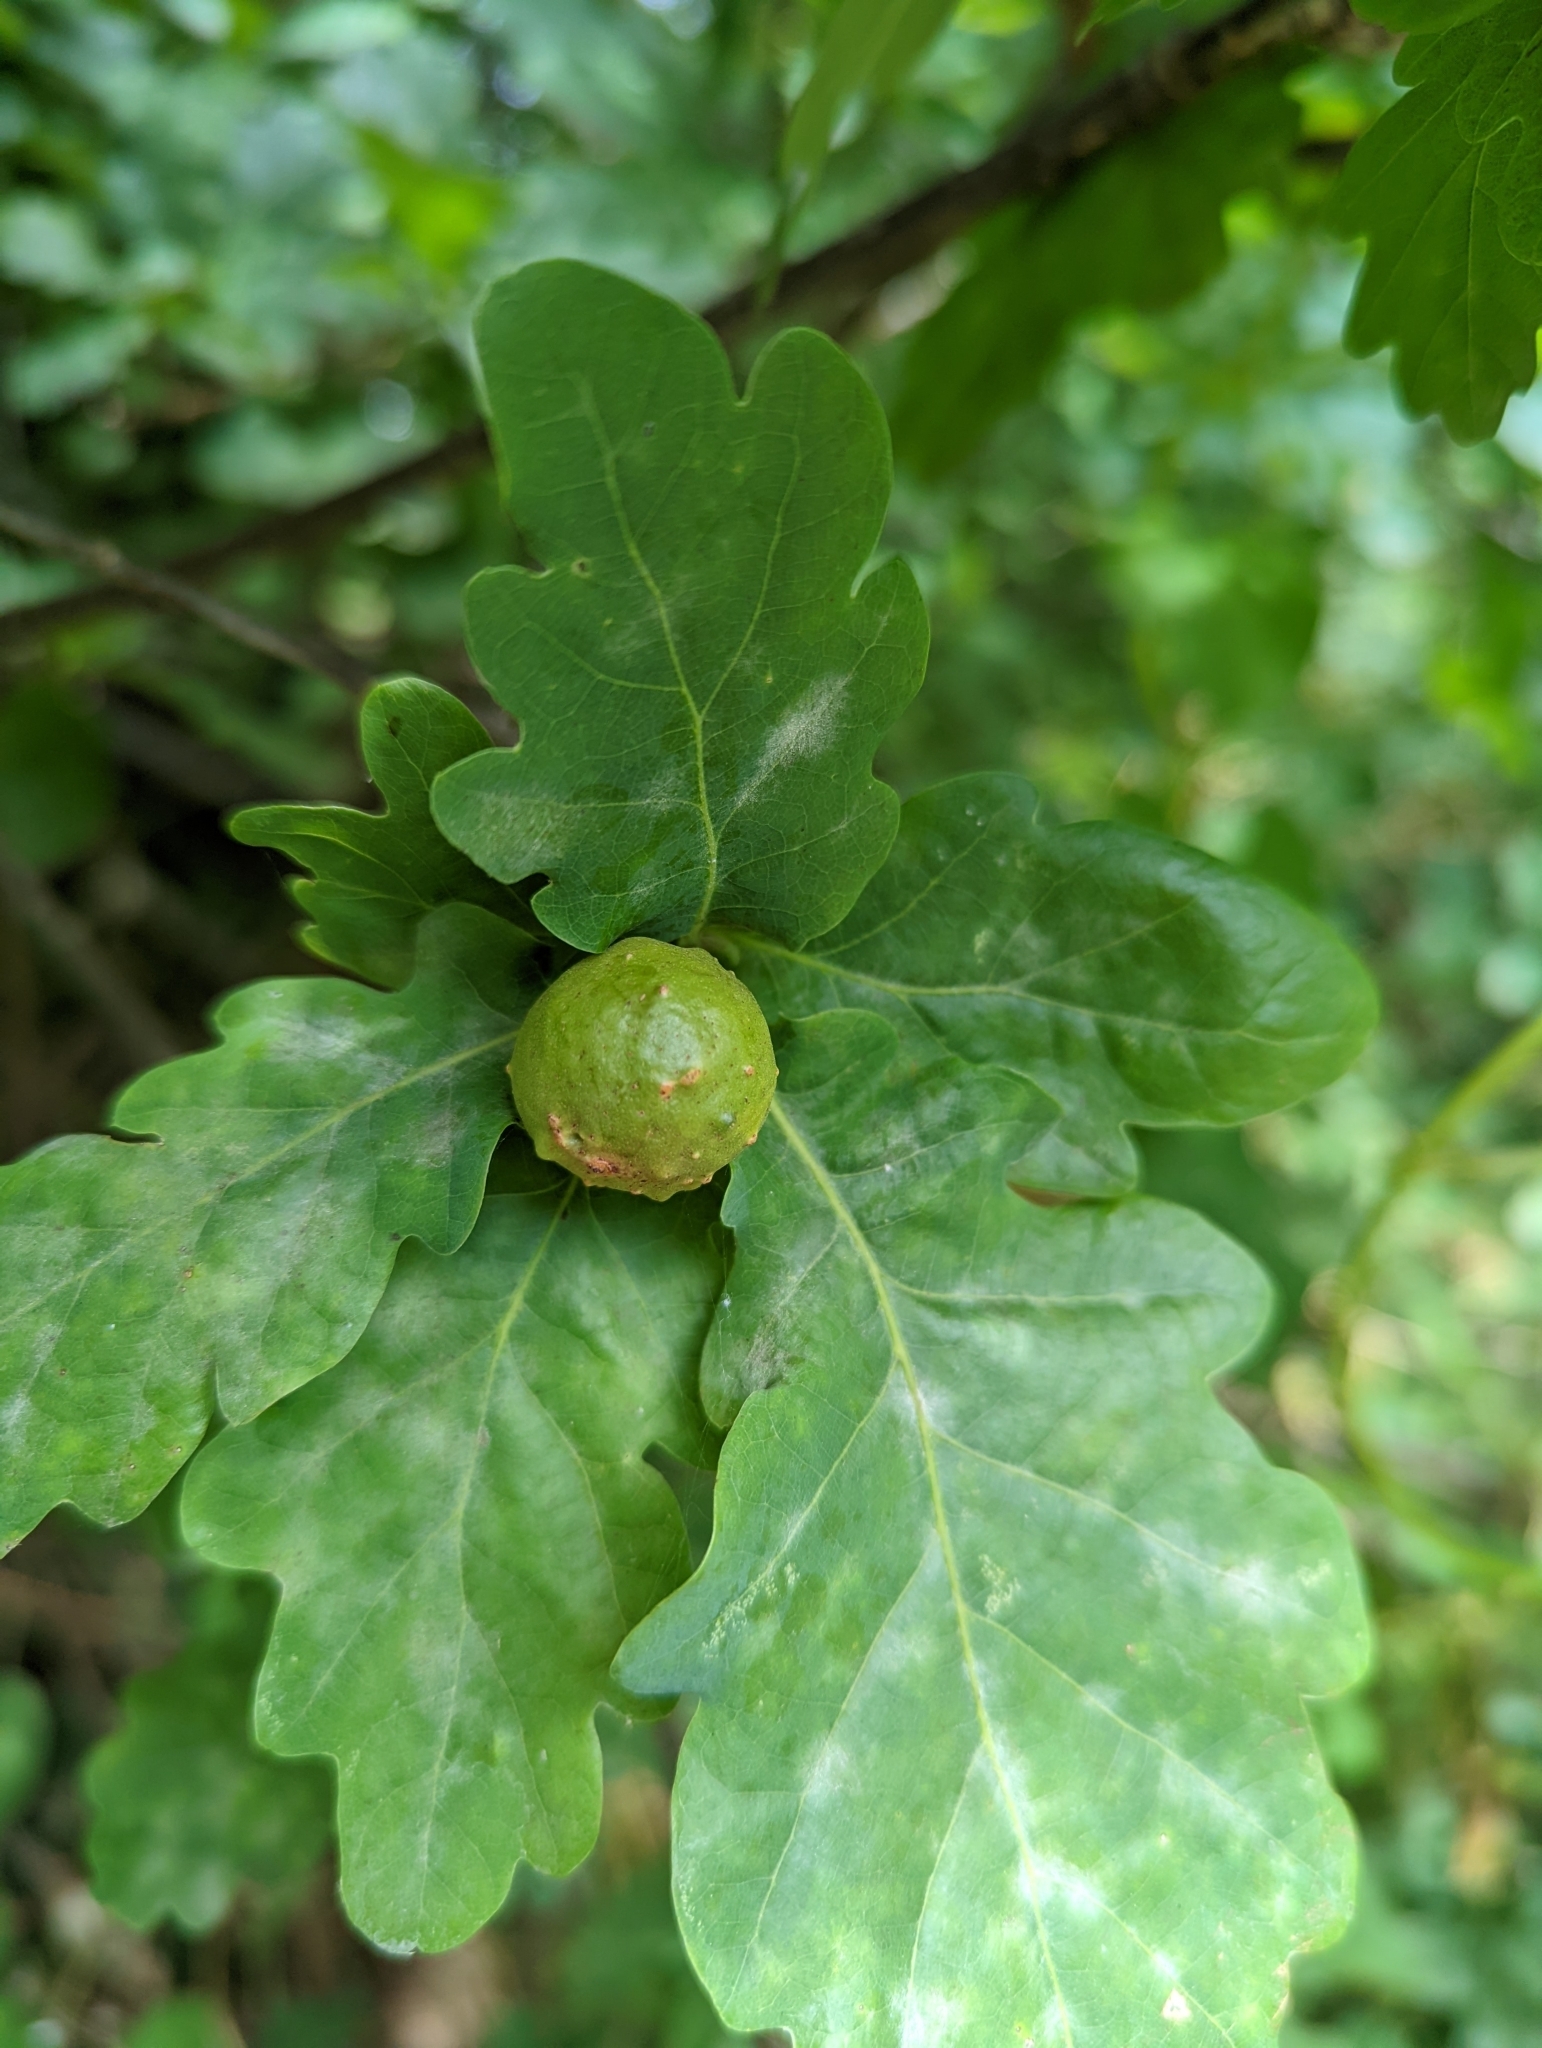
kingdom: Animalia
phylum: Arthropoda
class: Insecta
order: Hymenoptera
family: Cynipidae
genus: Andricus
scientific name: Andricus kollari
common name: Marble gall
